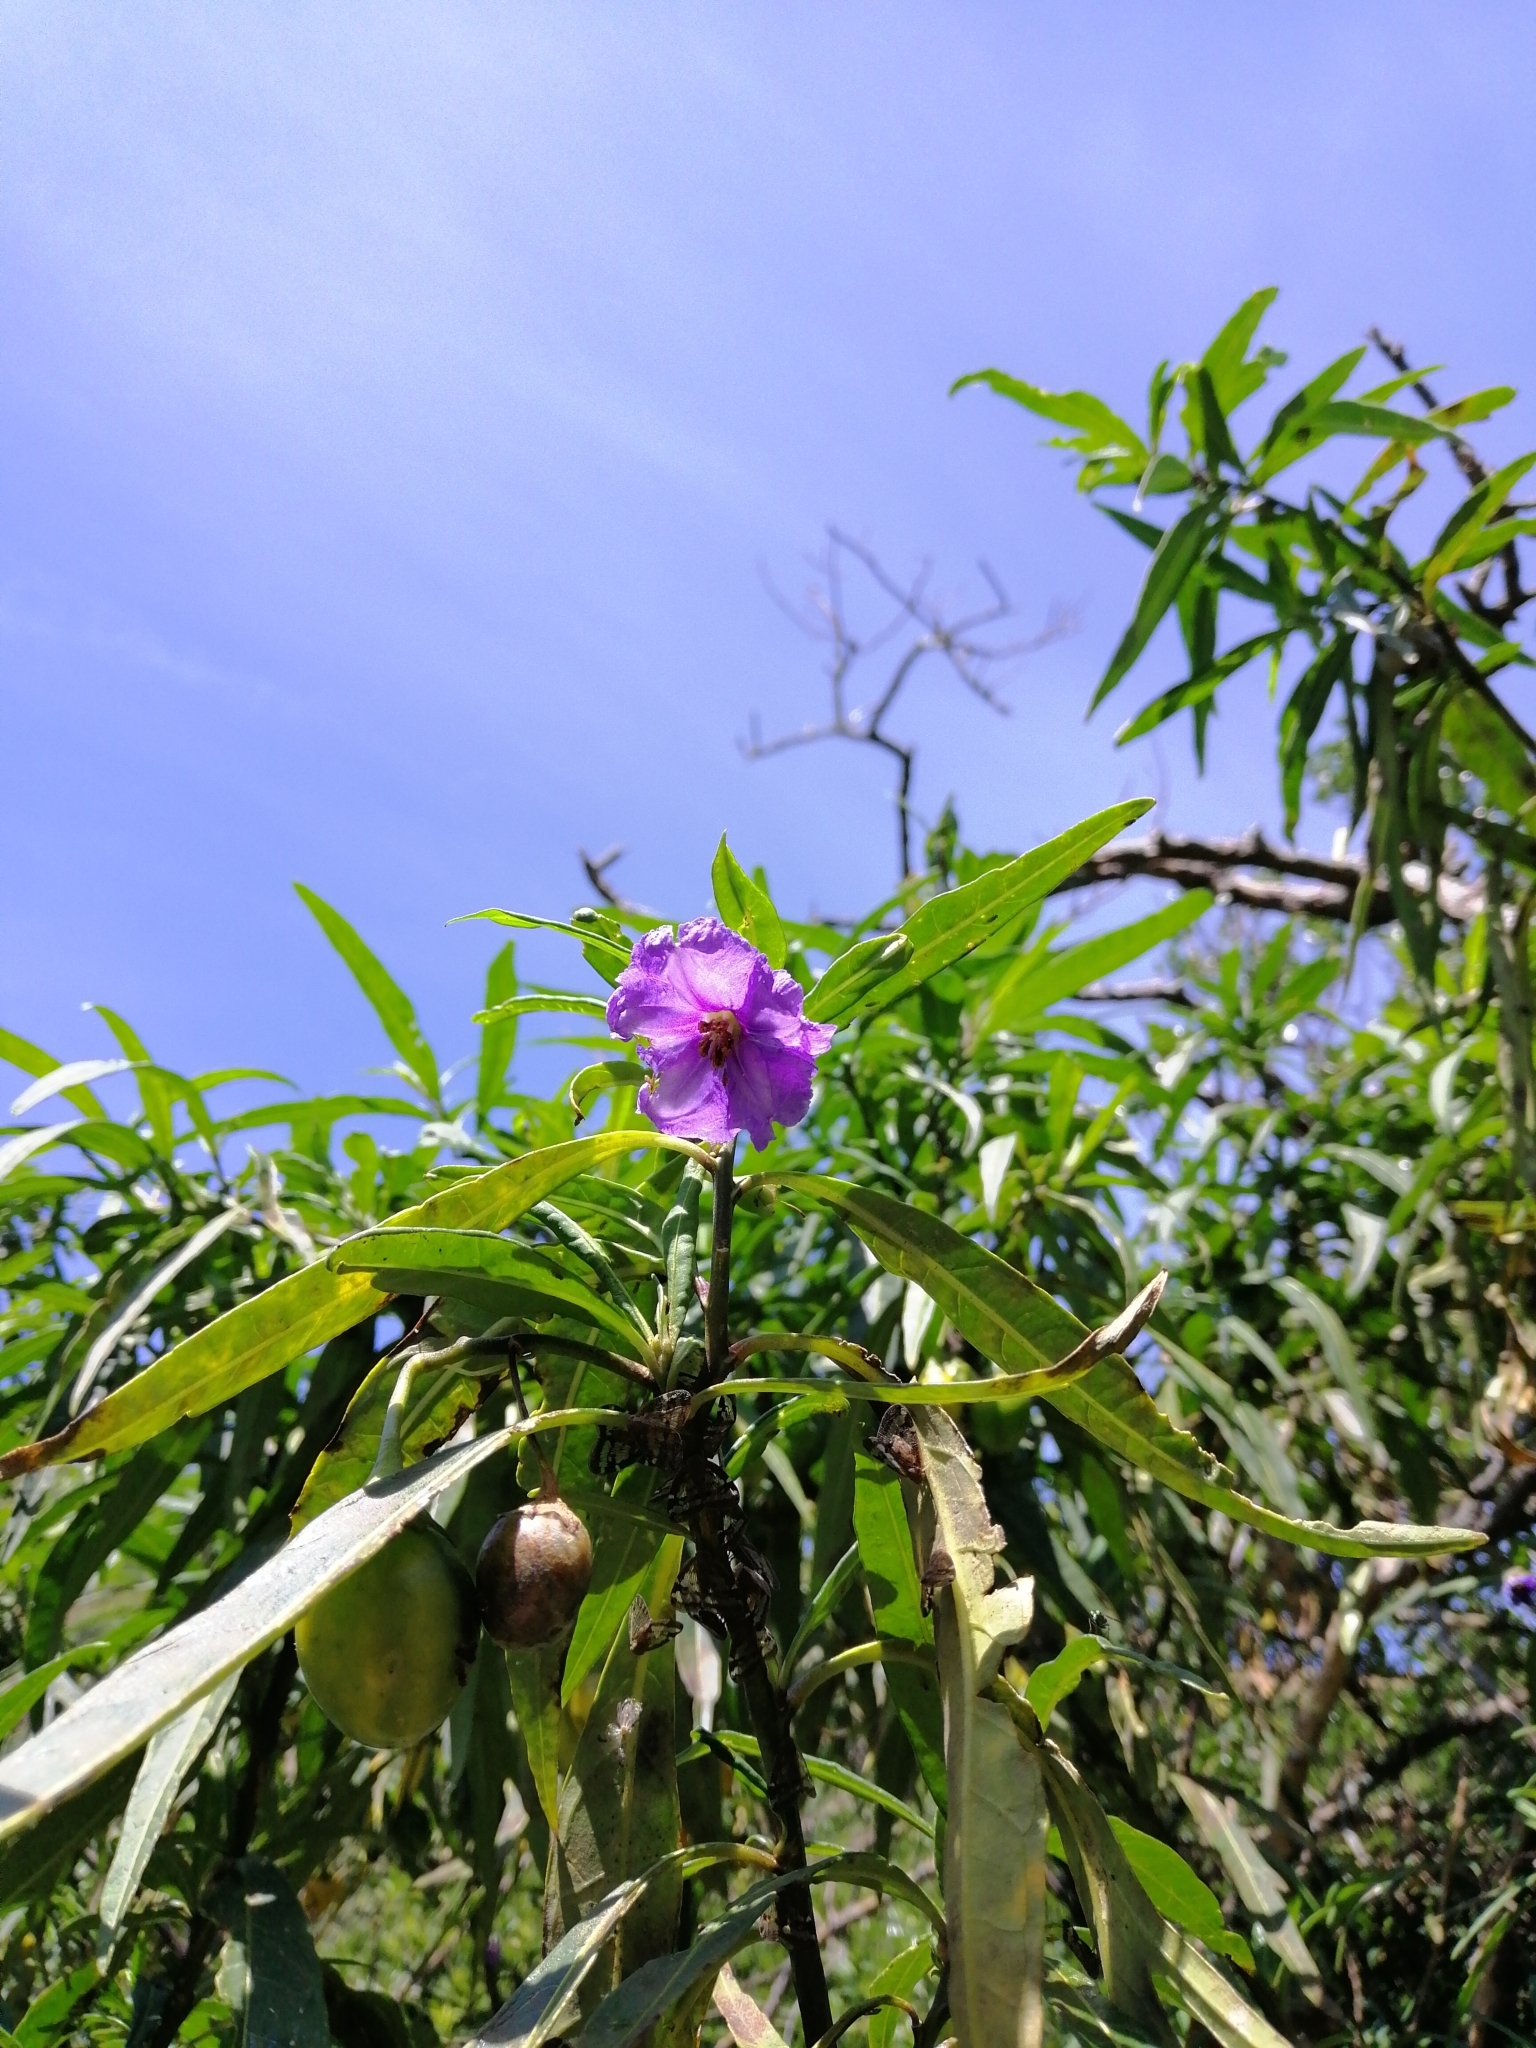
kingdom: Plantae
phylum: Tracheophyta
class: Magnoliopsida
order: Solanales
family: Solanaceae
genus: Solanum
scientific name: Solanum laciniatum
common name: Kangaroo-apple
